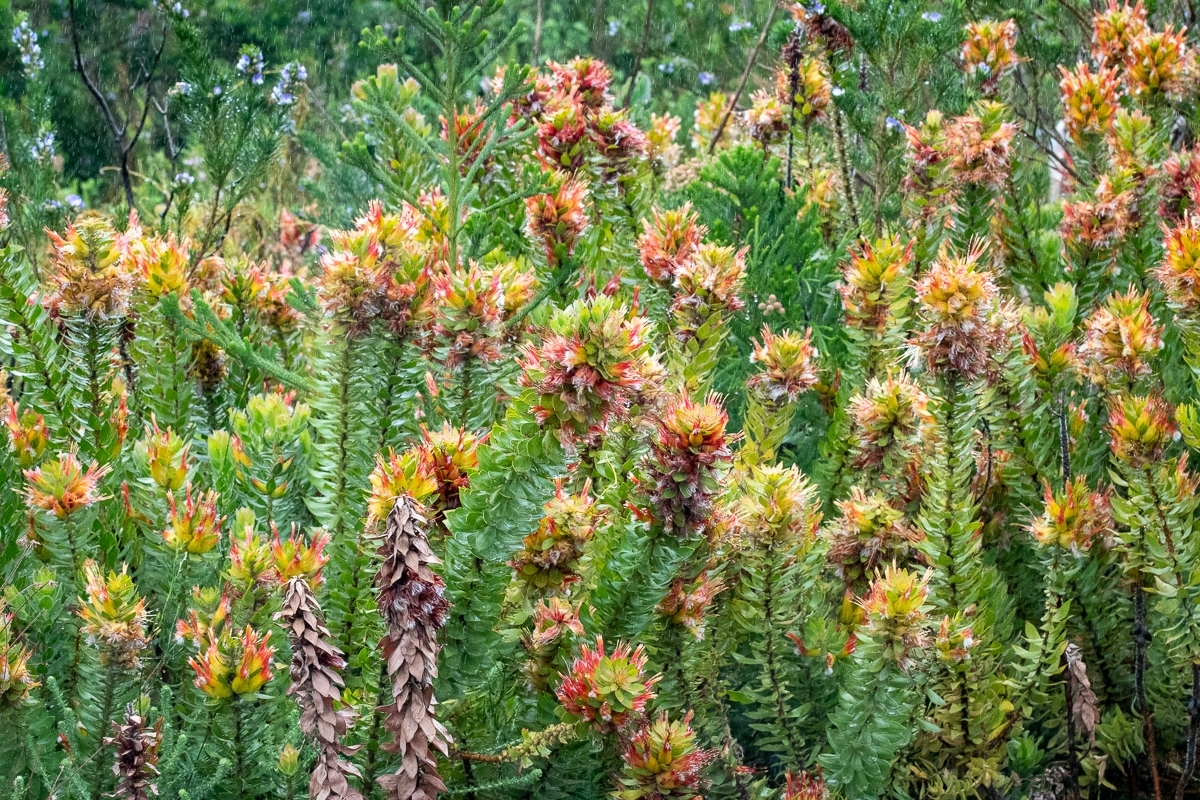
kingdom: Plantae
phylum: Tracheophyta
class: Magnoliopsida
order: Proteales
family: Proteaceae
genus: Mimetes
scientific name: Mimetes hirtus
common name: Marsh pagoda
